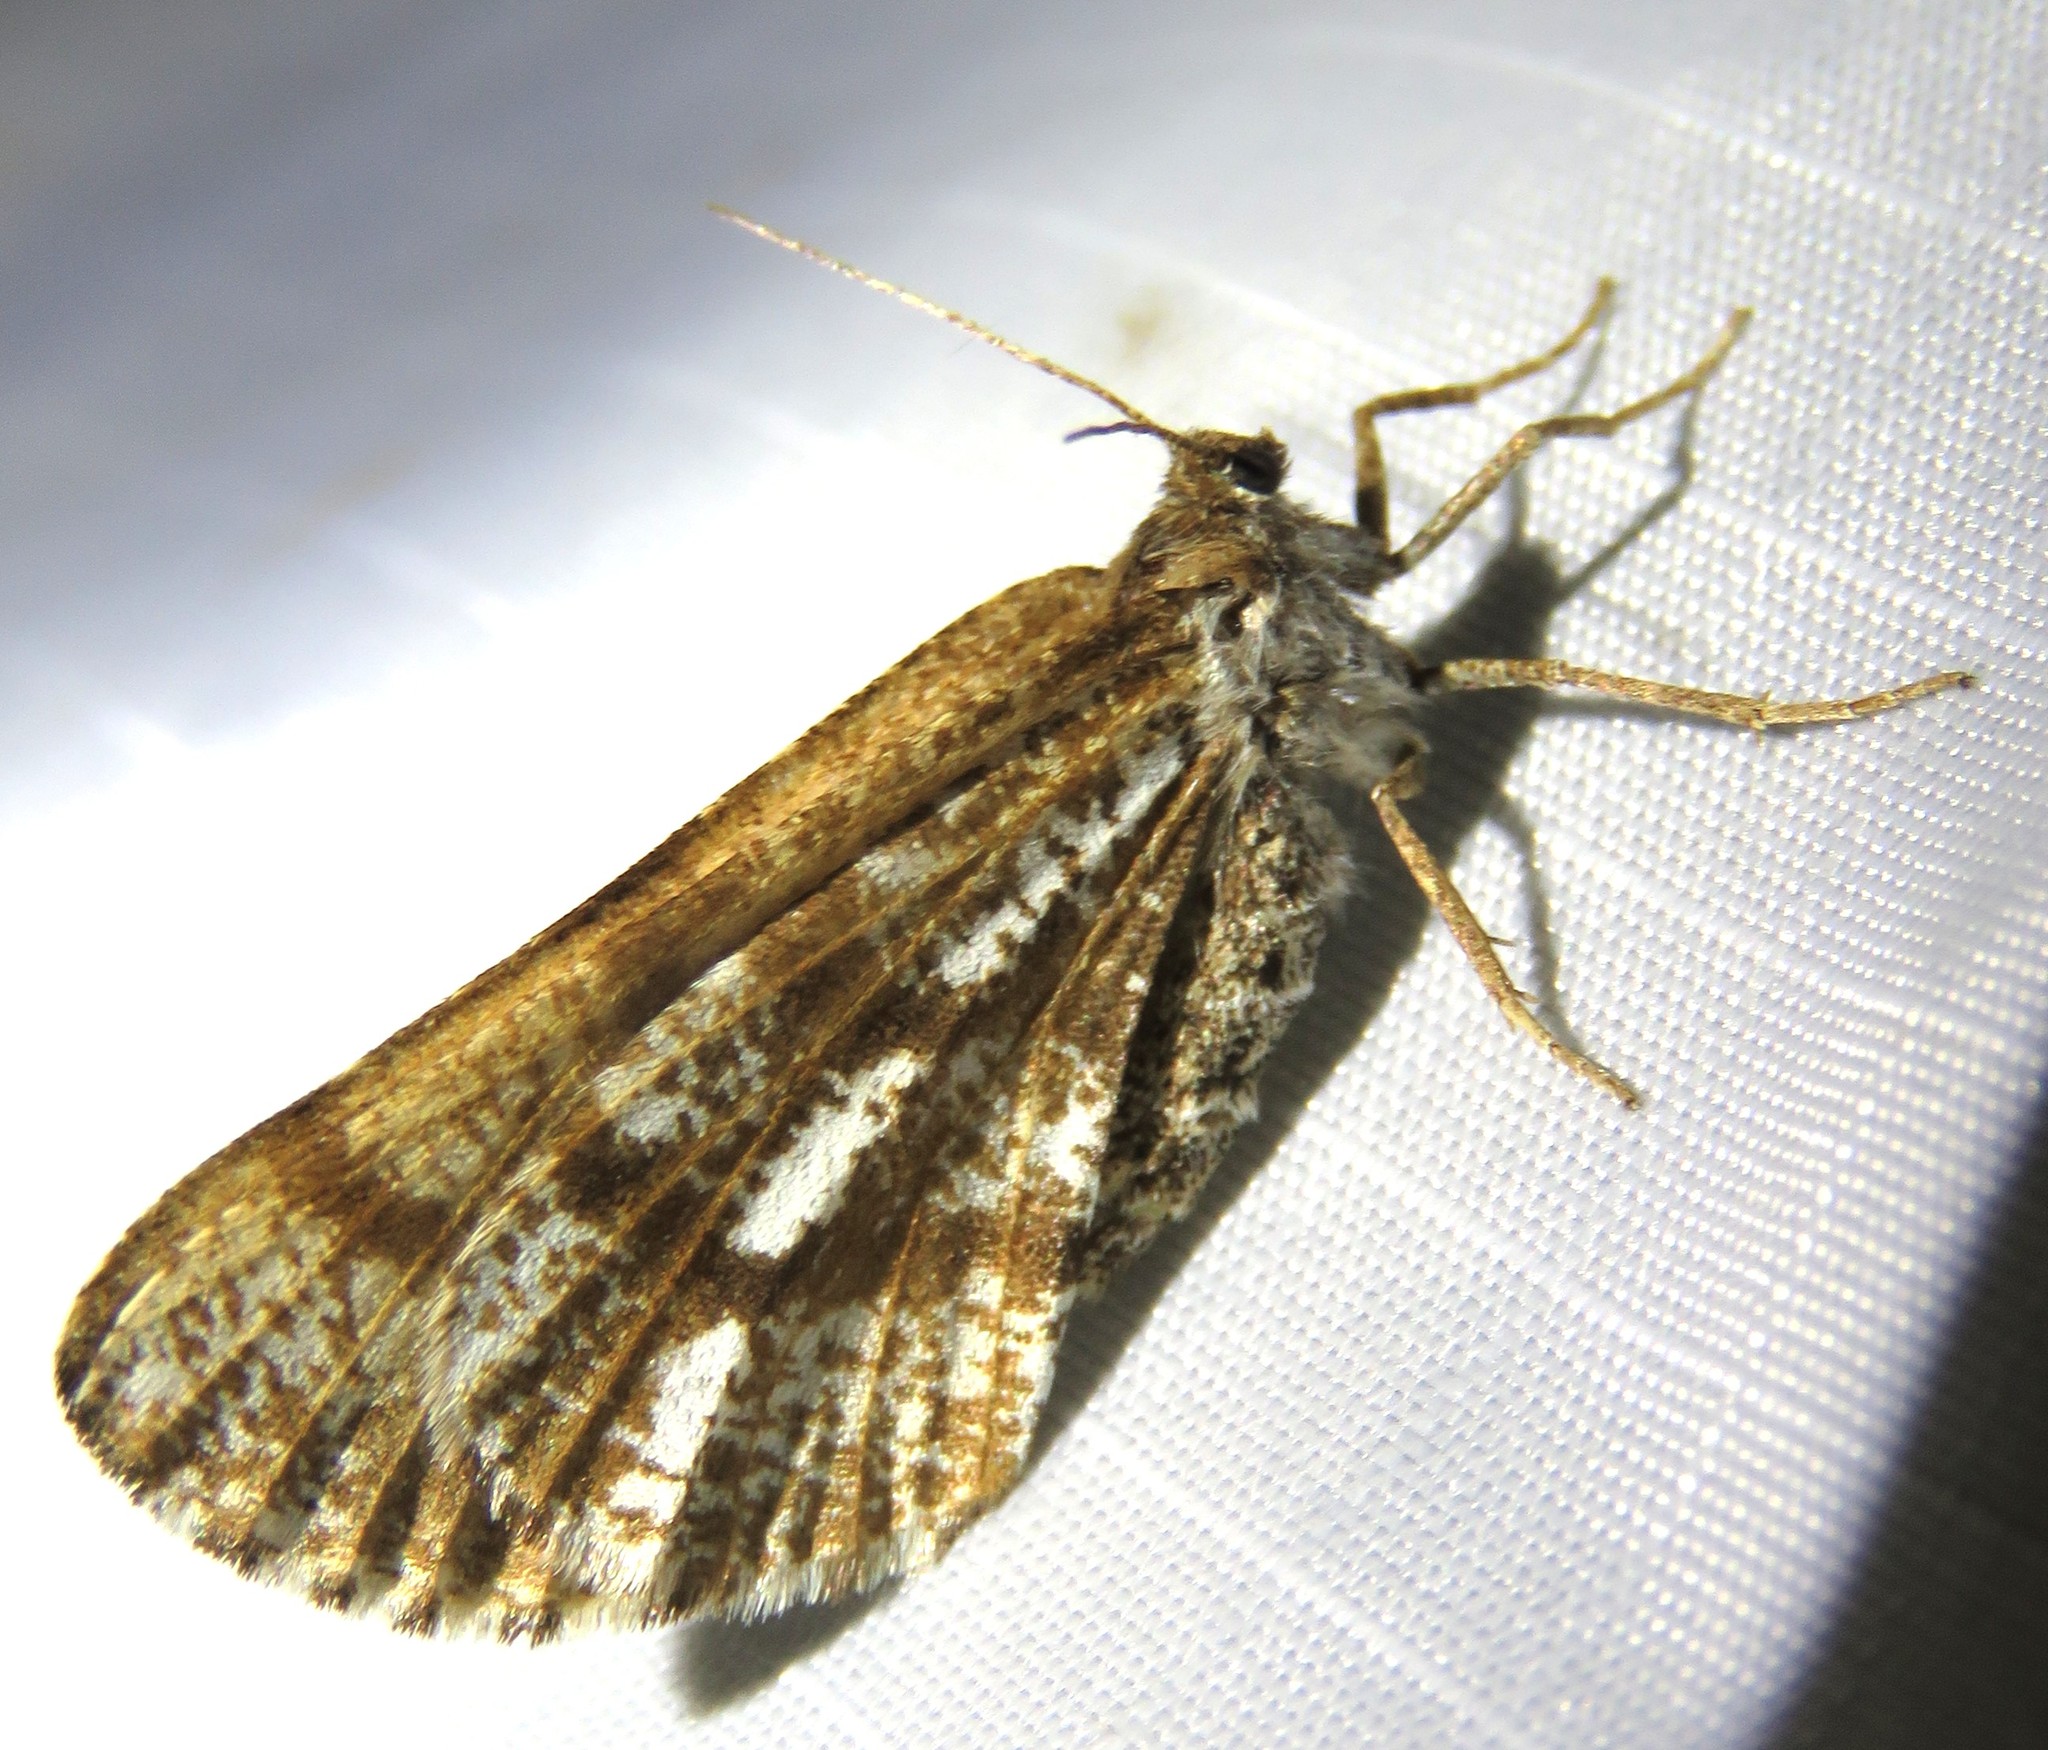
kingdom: Animalia
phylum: Arthropoda
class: Insecta
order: Lepidoptera
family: Geometridae
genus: Bupalus
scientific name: Bupalus piniaria
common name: Bordered white
